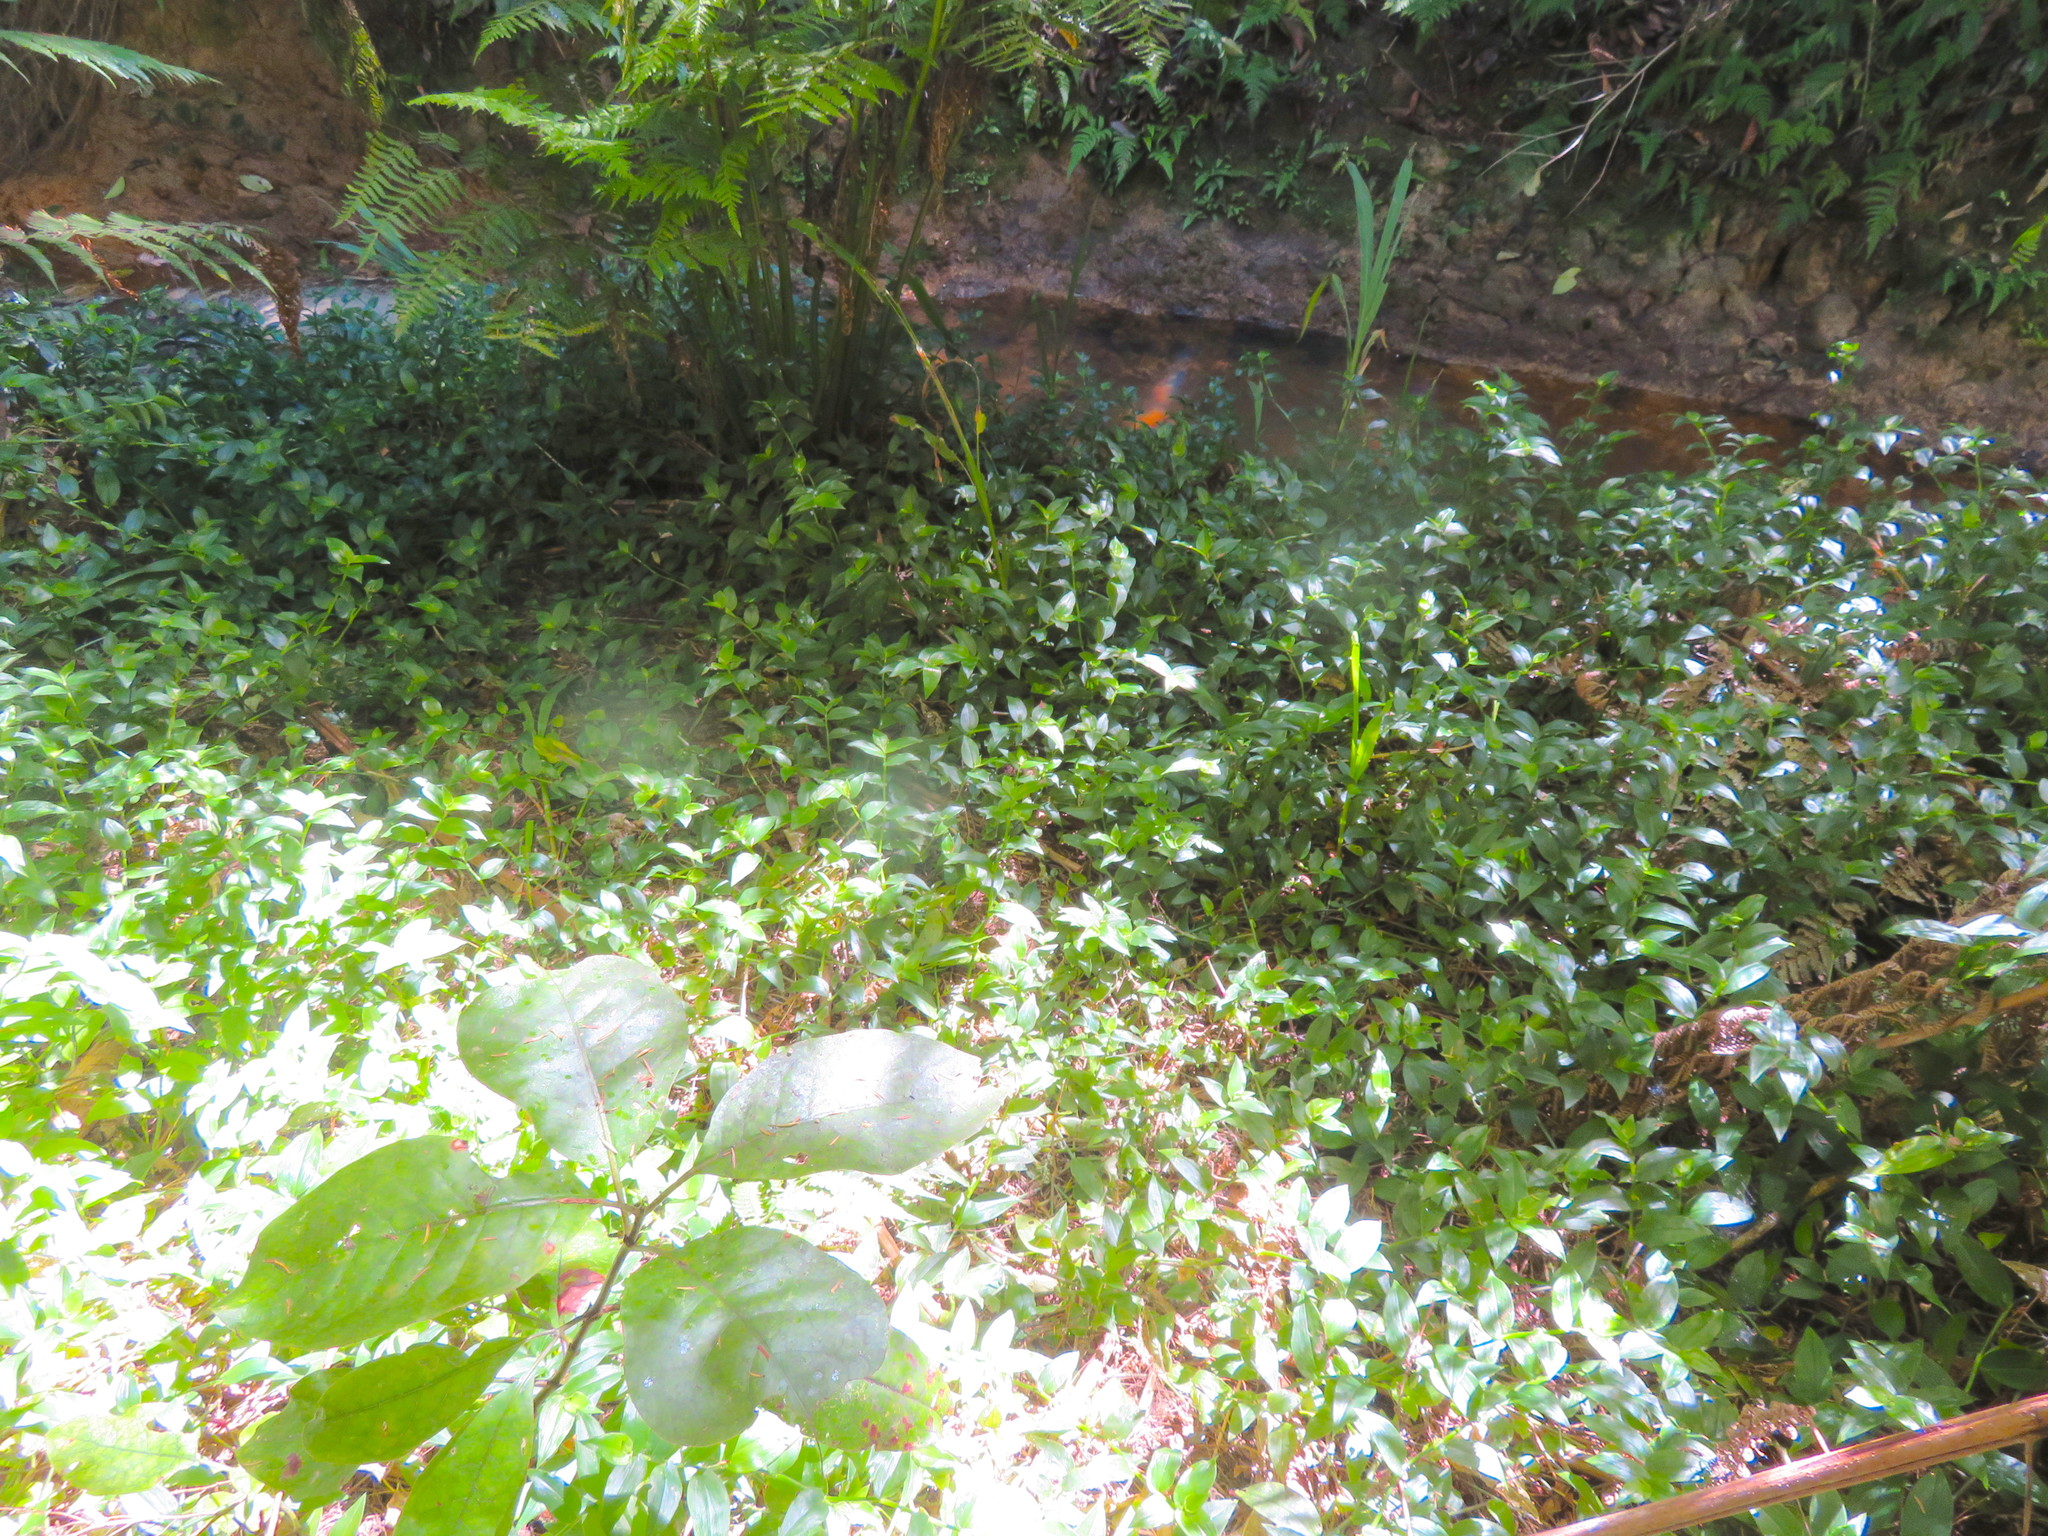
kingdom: Plantae
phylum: Tracheophyta
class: Magnoliopsida
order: Gentianales
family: Rubiaceae
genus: Coprosma
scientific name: Coprosma autumnalis
